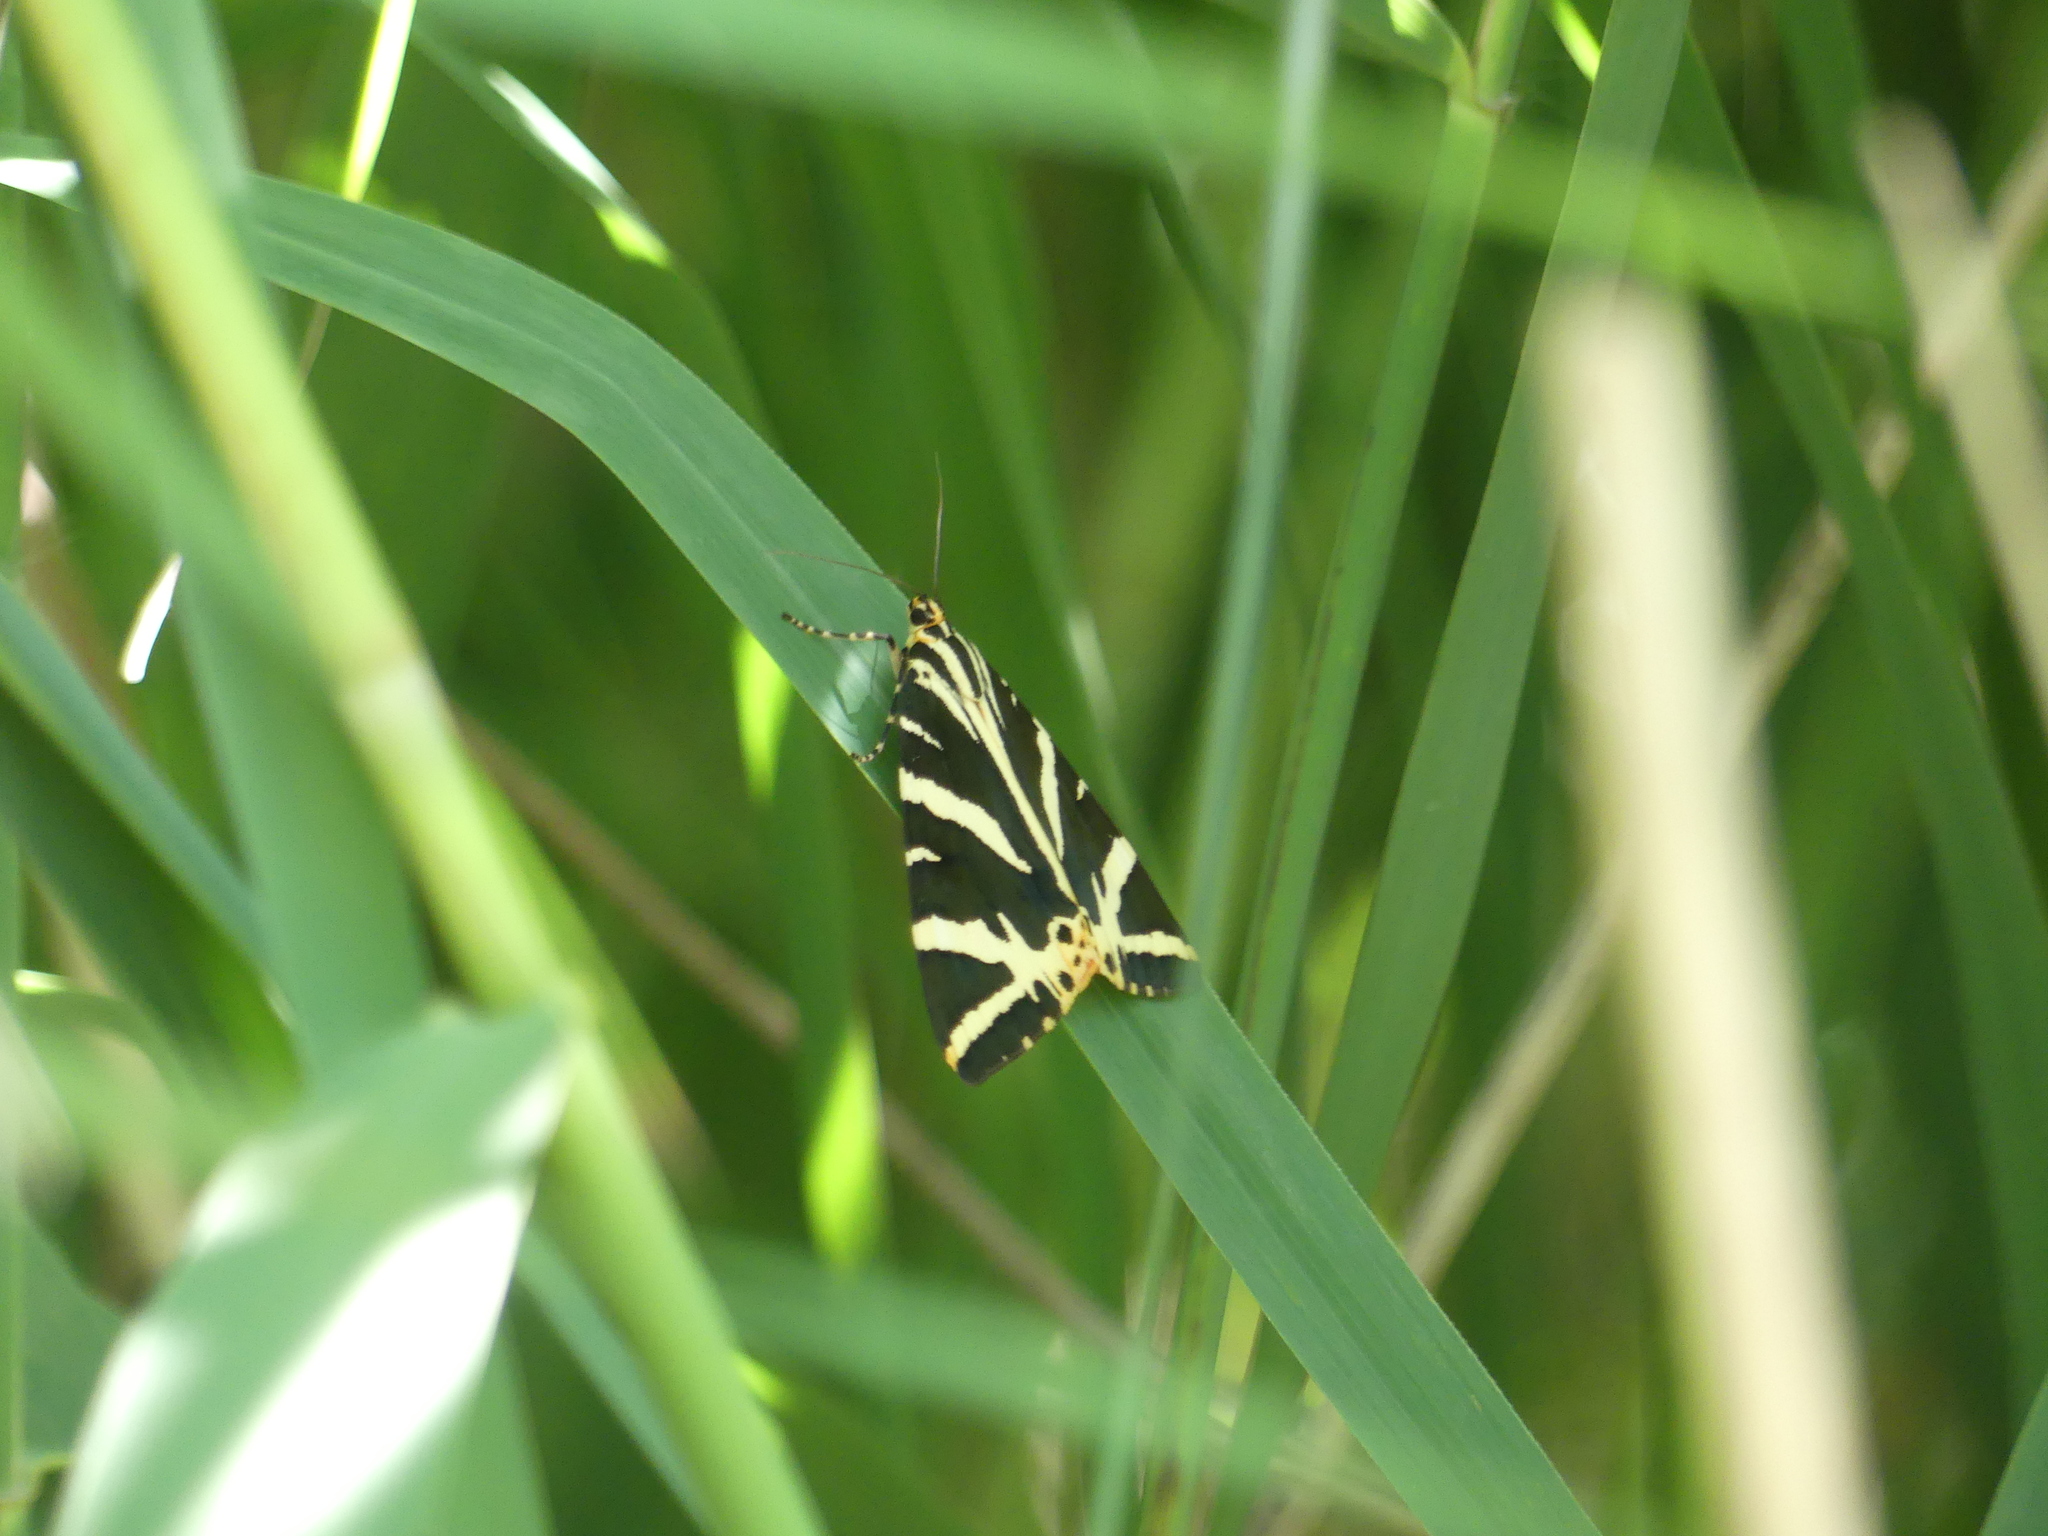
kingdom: Animalia
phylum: Arthropoda
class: Insecta
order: Lepidoptera
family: Erebidae
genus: Euplagia
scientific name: Euplagia quadripunctaria
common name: Jersey tiger
